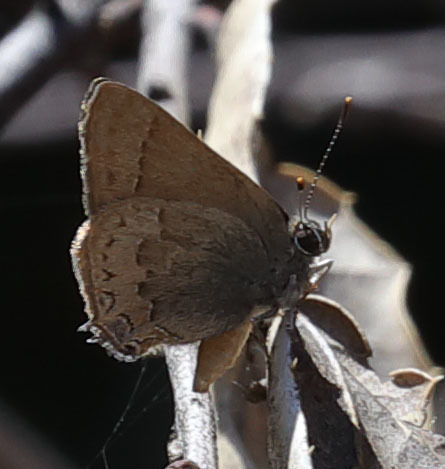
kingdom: Animalia
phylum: Arthropoda
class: Insecta
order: Lepidoptera
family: Lycaenidae
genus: Strymon
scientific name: Strymon saepium
